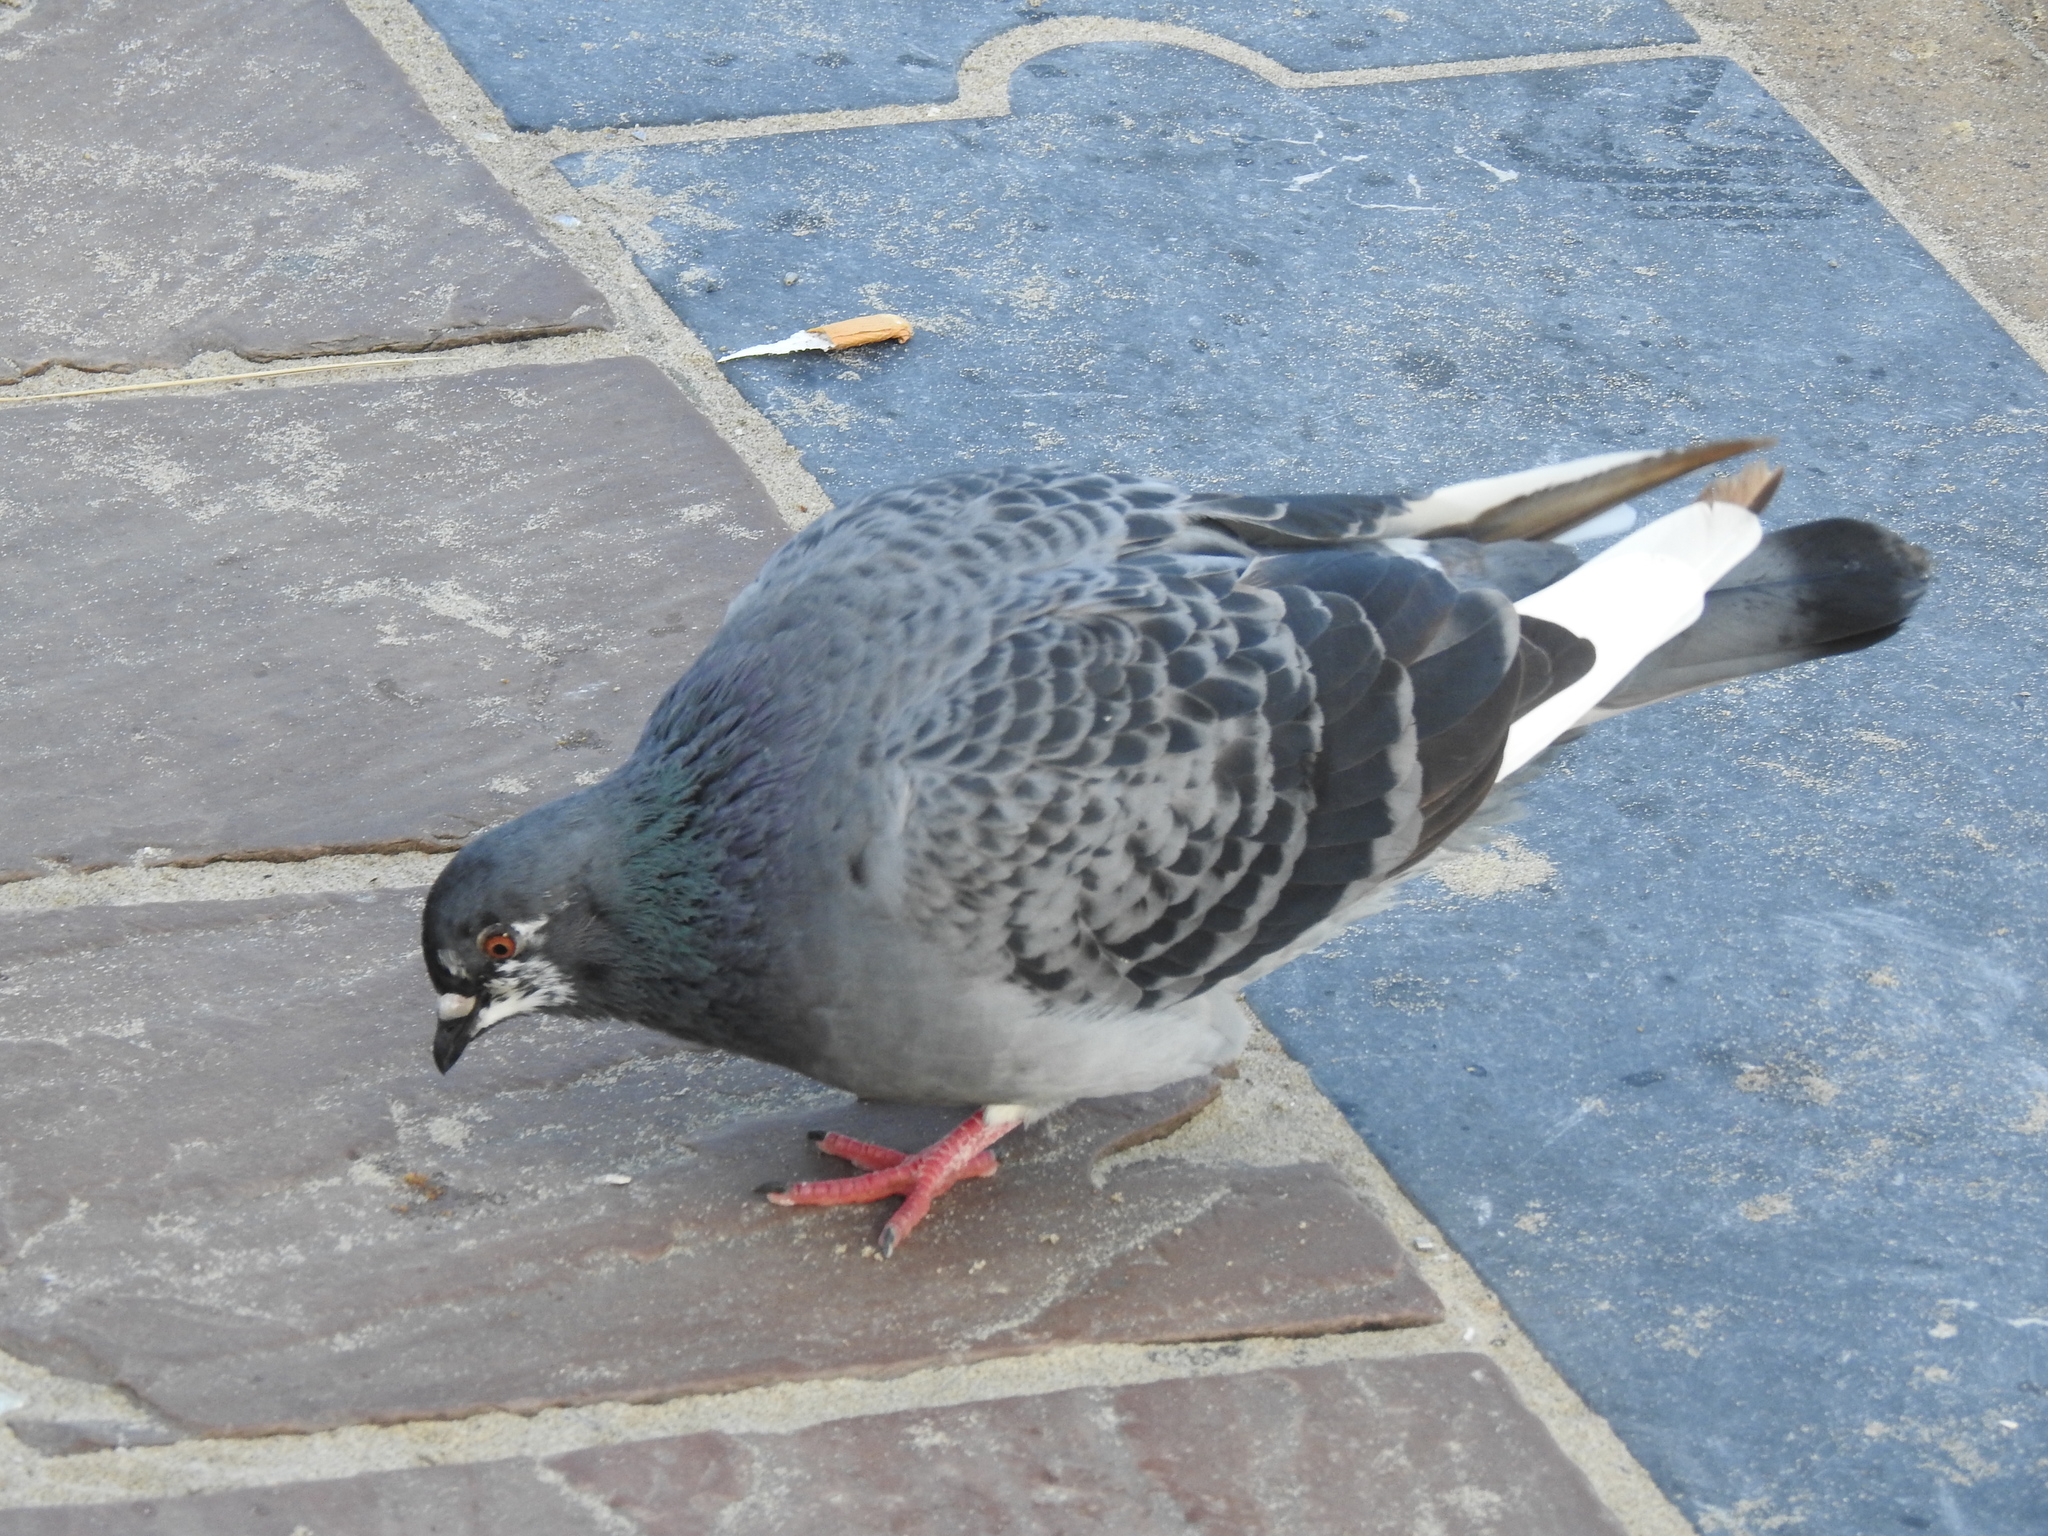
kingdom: Animalia
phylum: Chordata
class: Aves
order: Columbiformes
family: Columbidae
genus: Columba
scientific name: Columba livia
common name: Rock pigeon
